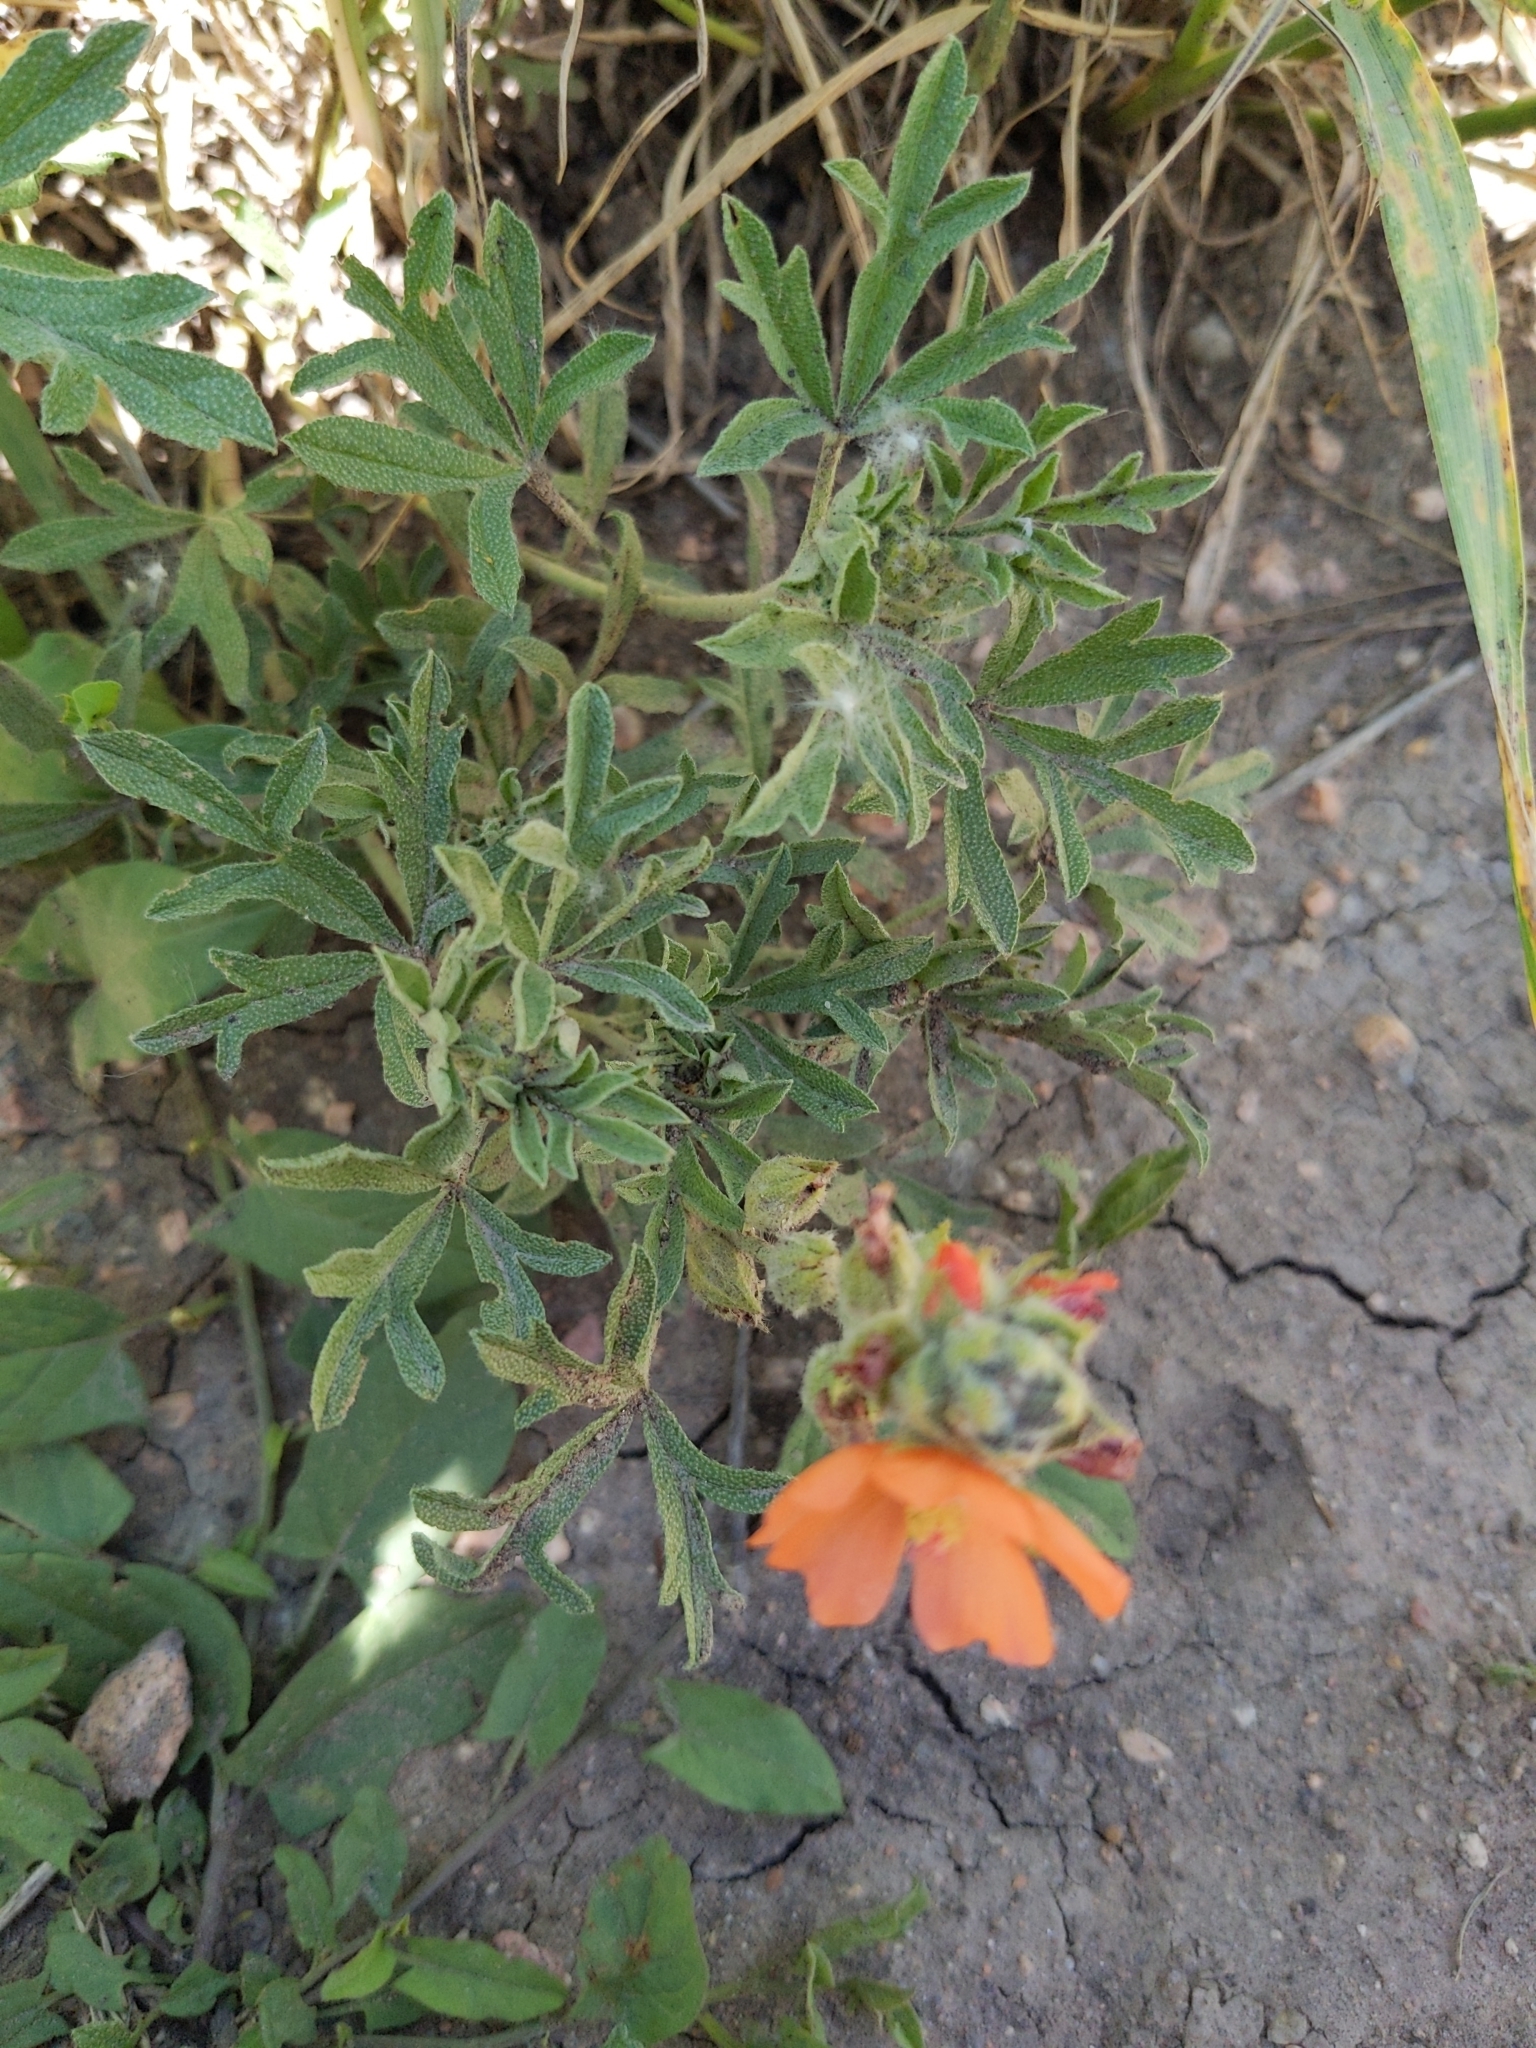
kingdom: Plantae
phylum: Tracheophyta
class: Magnoliopsida
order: Malvales
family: Malvaceae
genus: Sphaeralcea
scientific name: Sphaeralcea coccinea
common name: Moss-rose
